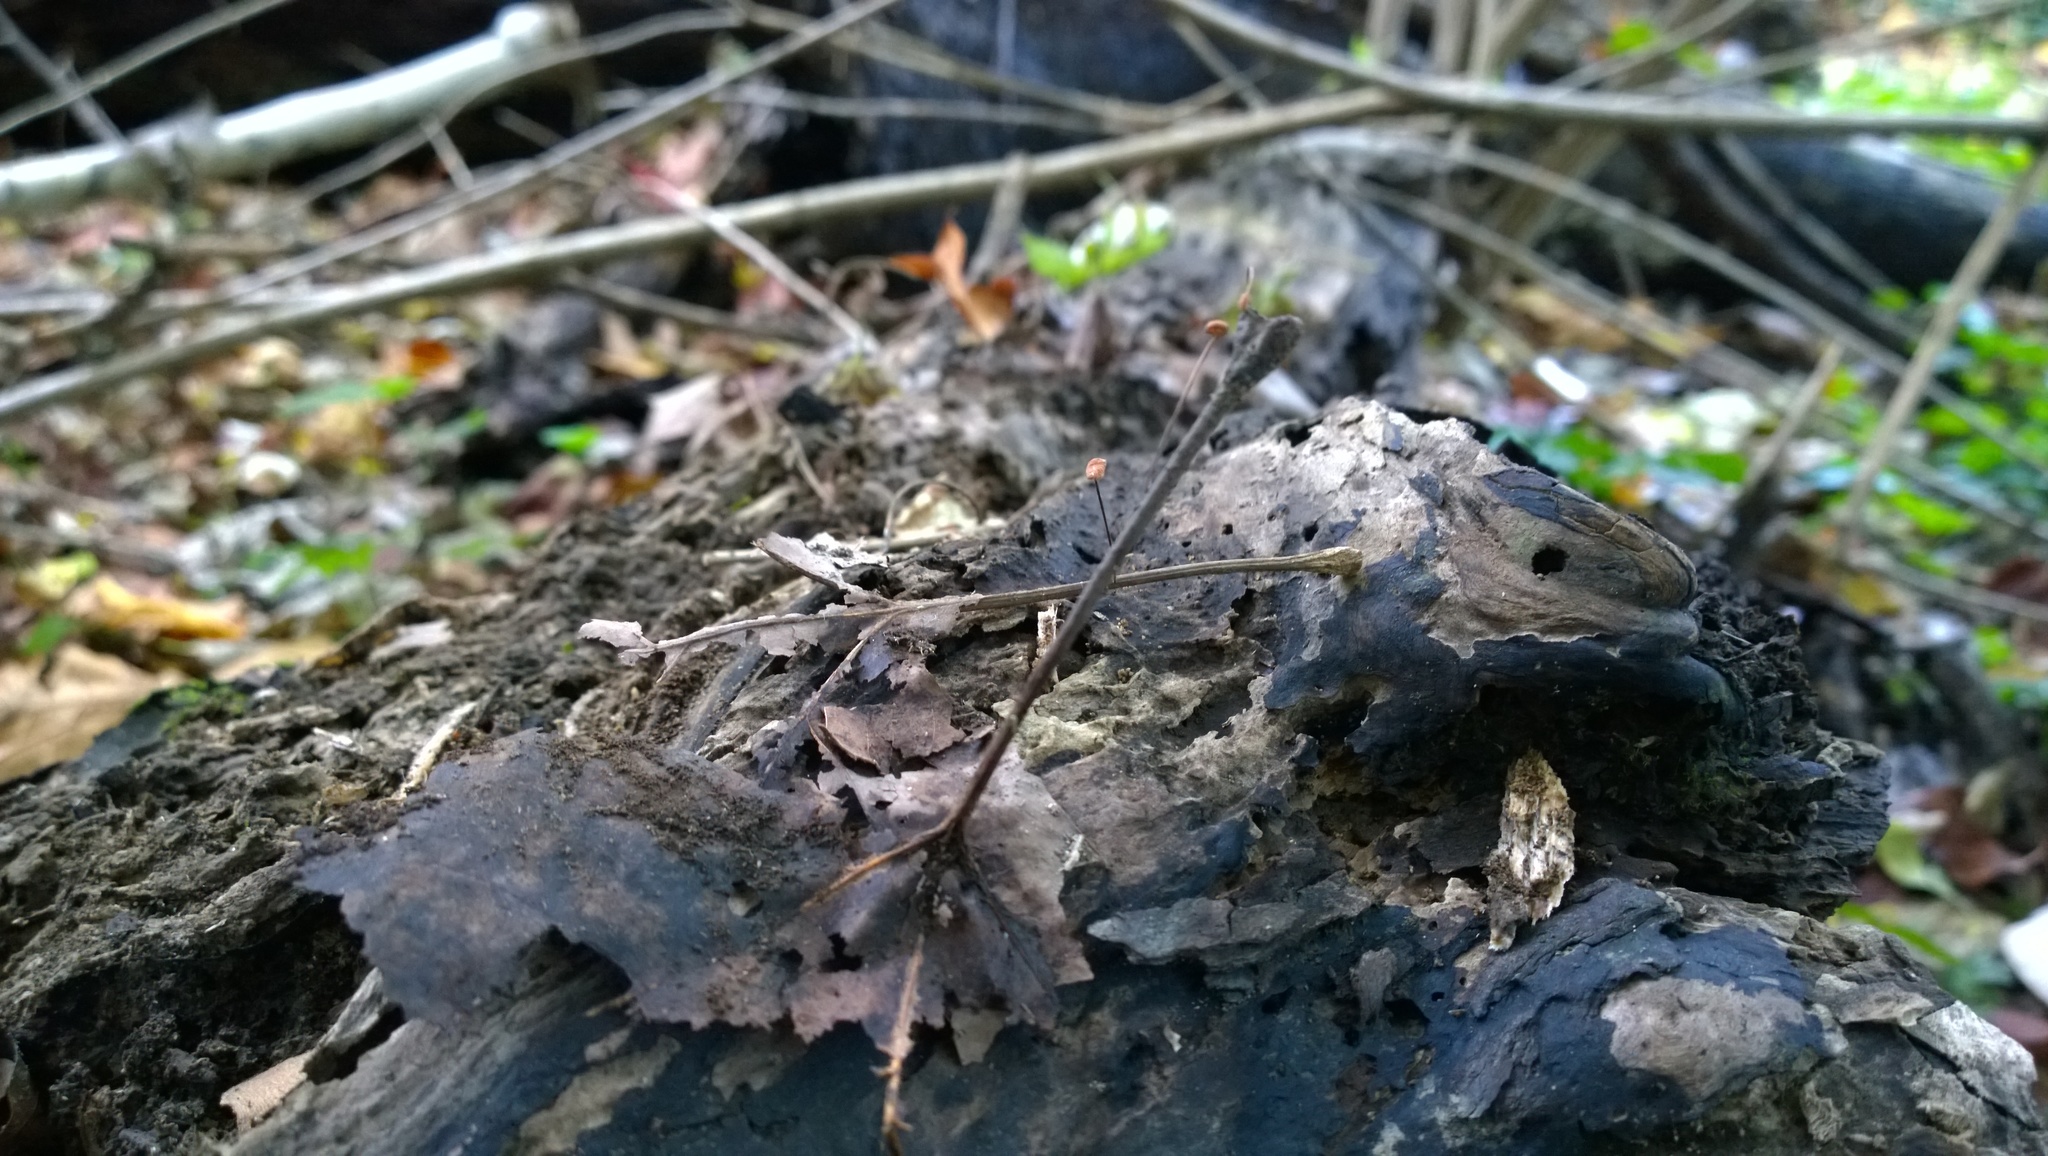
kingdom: Fungi
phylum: Basidiomycota
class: Agaricomycetes
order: Agaricales
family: Marasmiaceae
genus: Marasmius
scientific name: Marasmius felix
